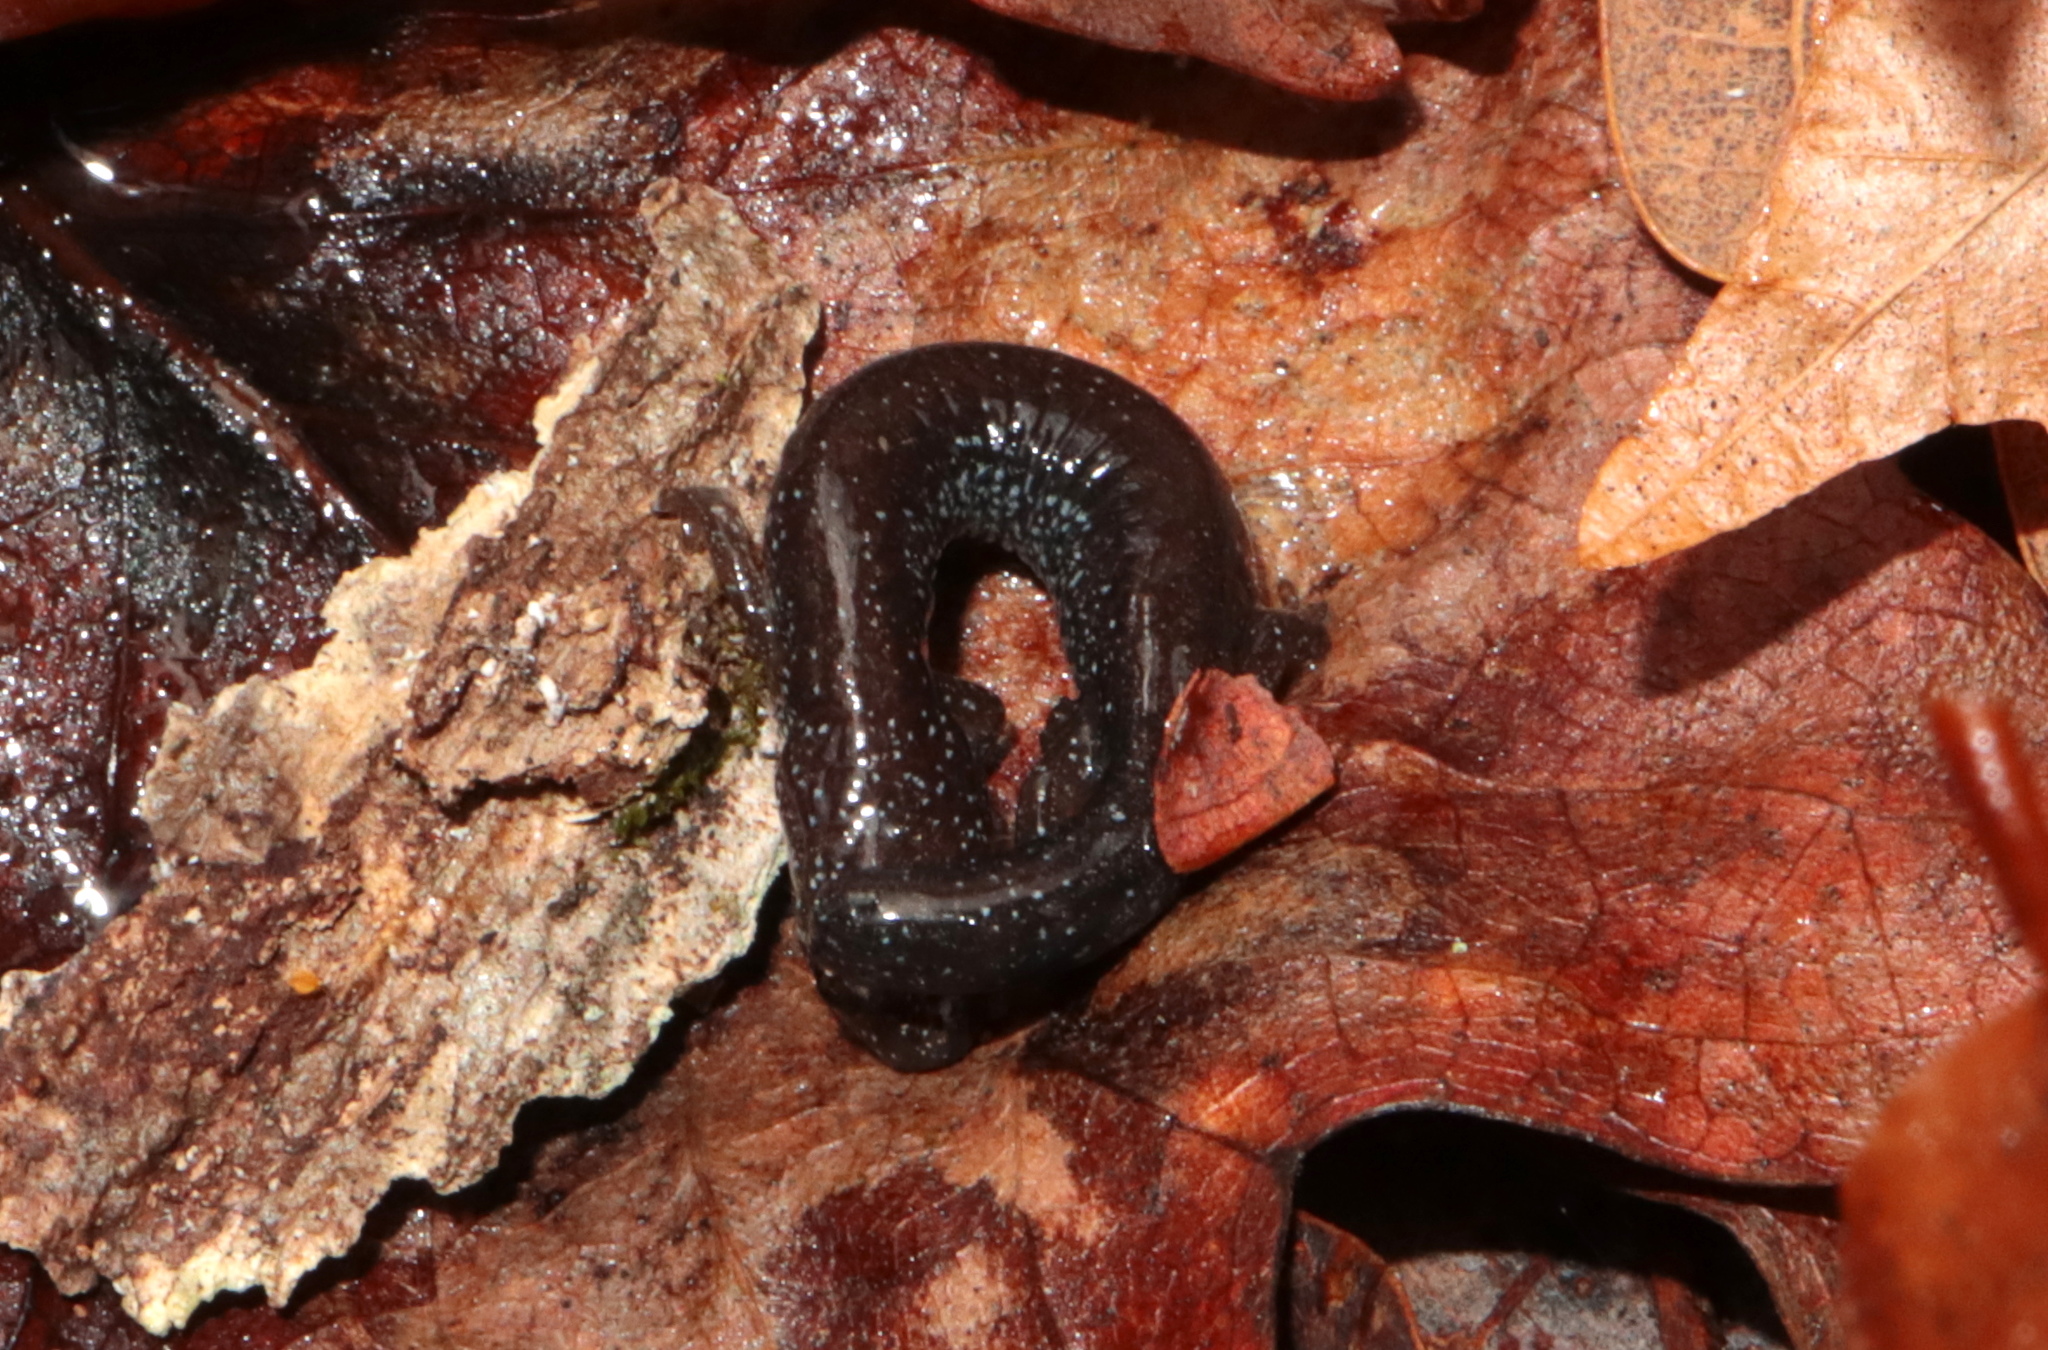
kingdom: Animalia
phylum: Chordata
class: Amphibia
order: Caudata
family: Plethodontidae
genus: Plethodon
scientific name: Plethodon cinereus
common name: Redback salamander
